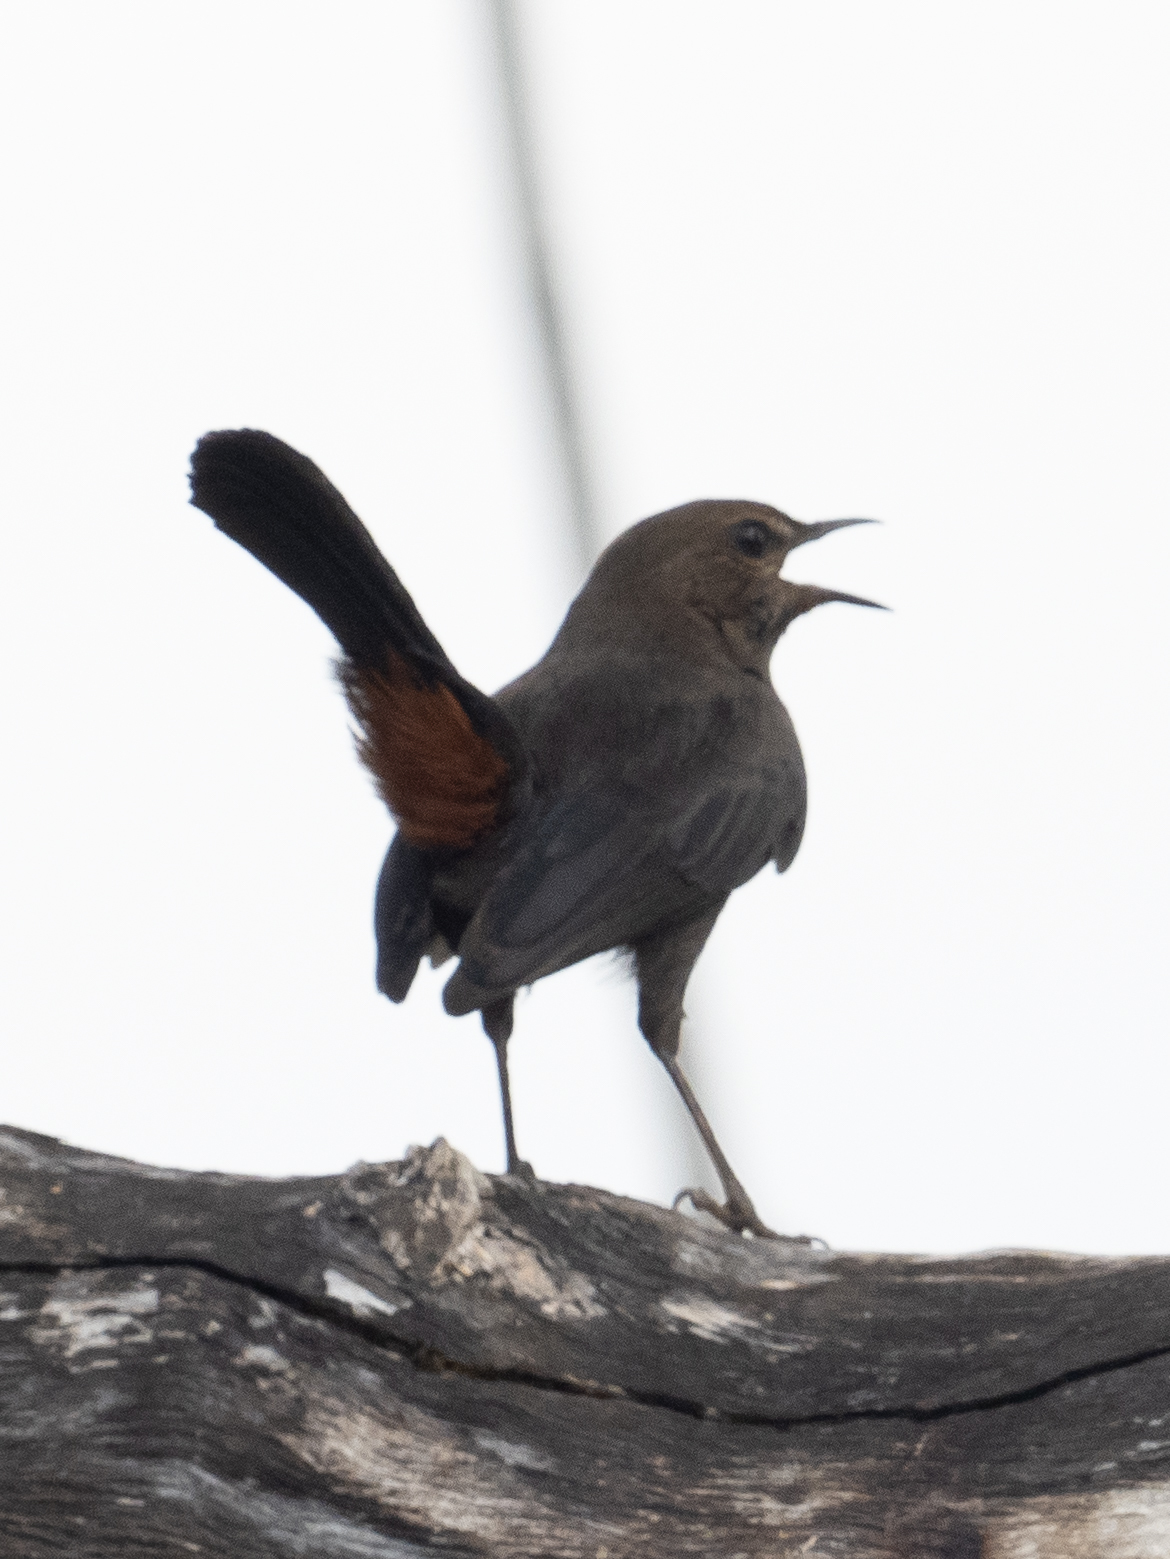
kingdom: Animalia
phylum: Chordata
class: Aves
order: Passeriformes
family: Muscicapidae
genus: Saxicoloides
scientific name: Saxicoloides fulicatus
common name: Indian robin
